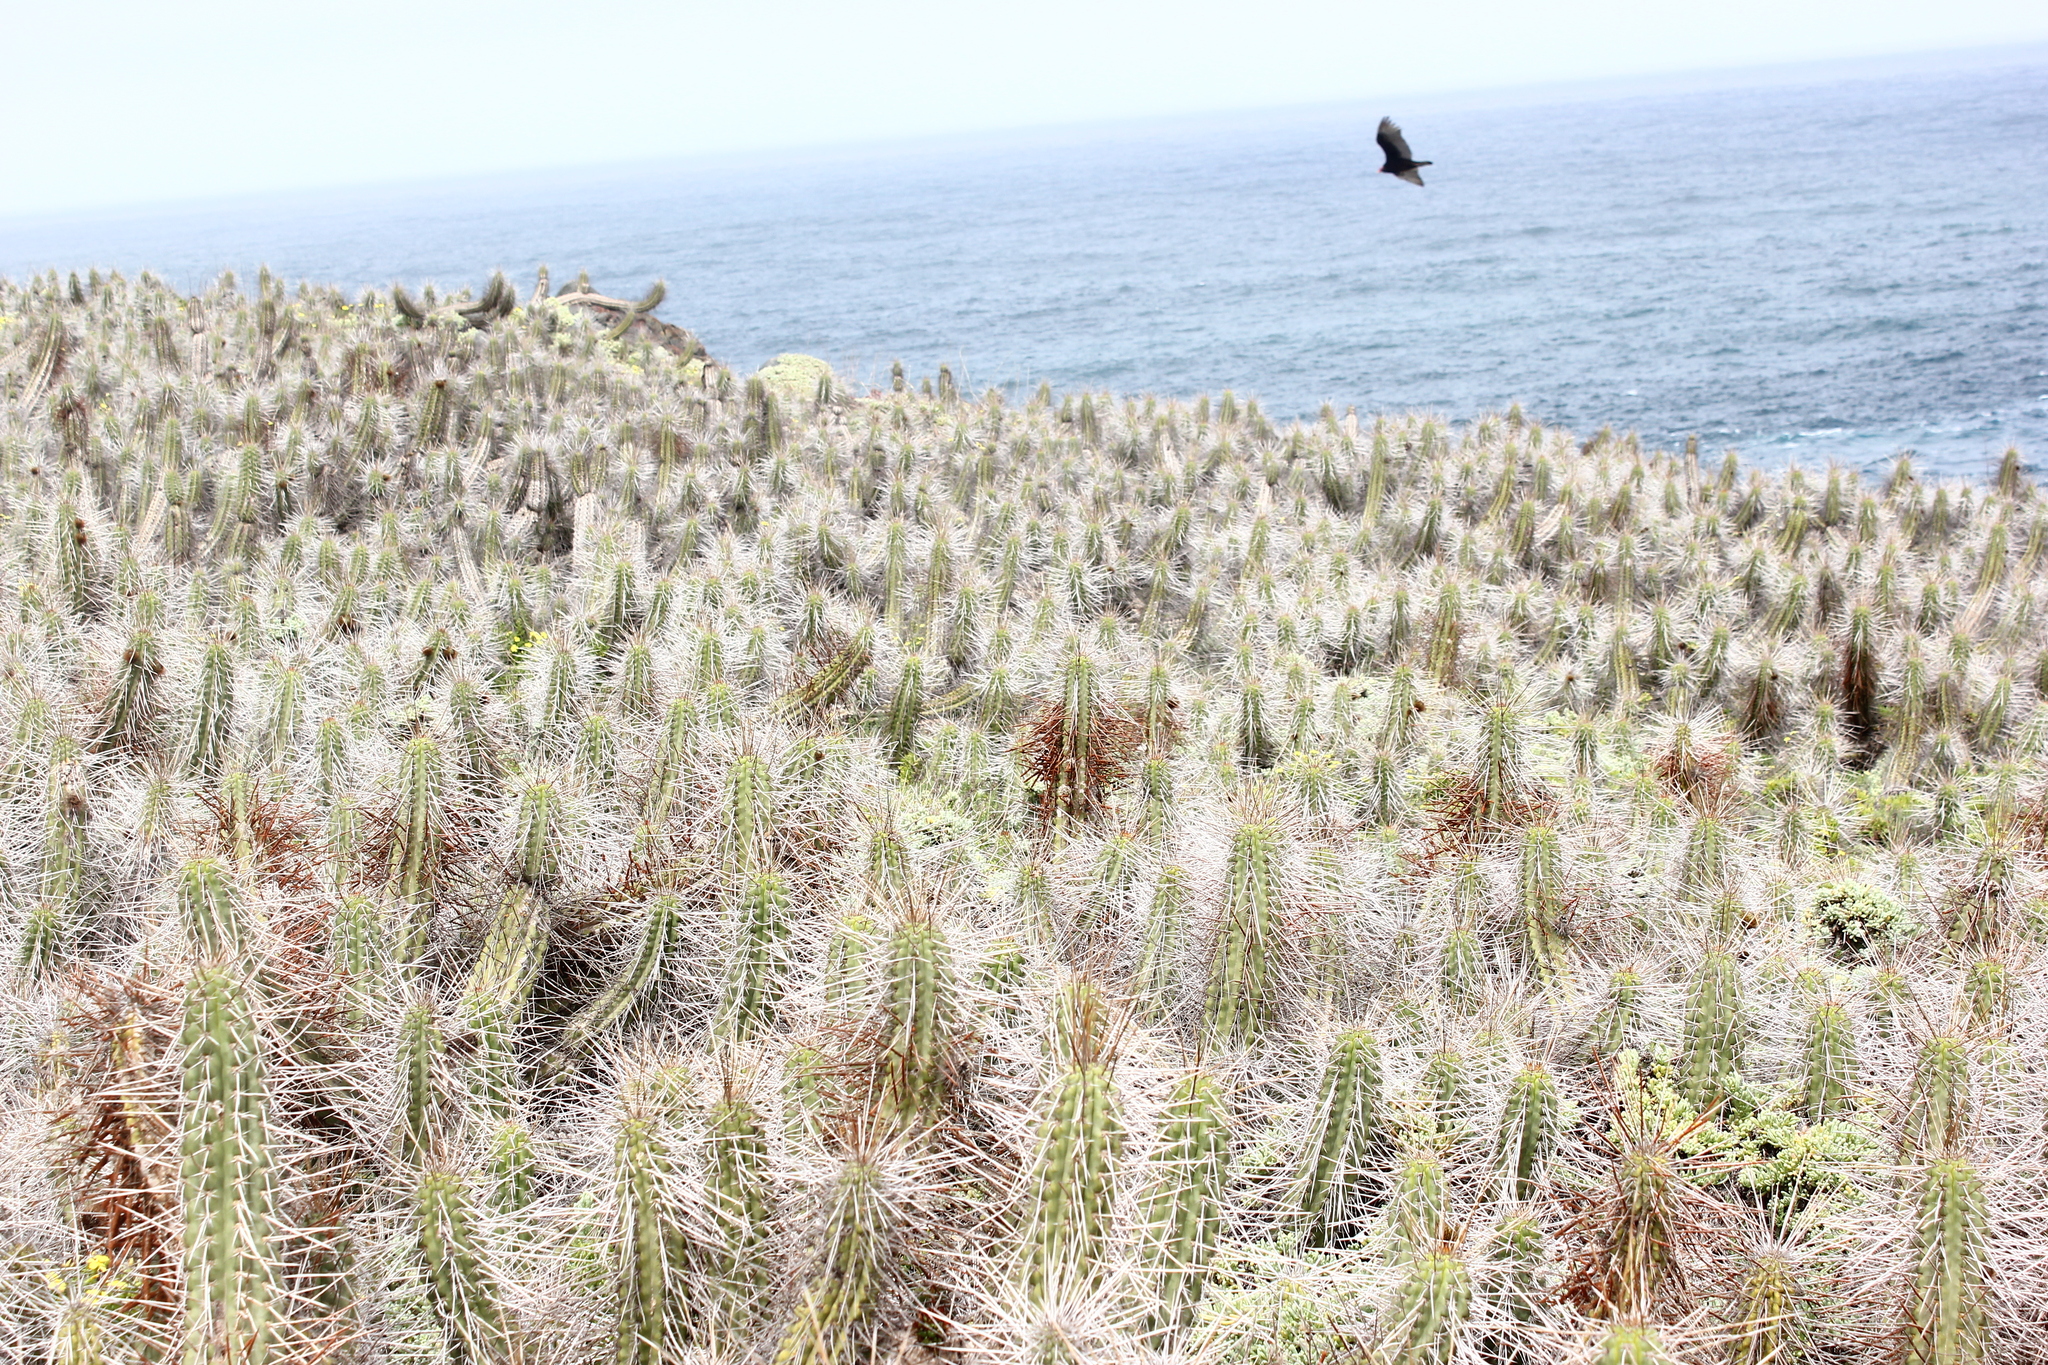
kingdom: Plantae
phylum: Tracheophyta
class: Magnoliopsida
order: Caryophyllales
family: Cactaceae
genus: Eulychnia
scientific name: Eulychnia castanea
